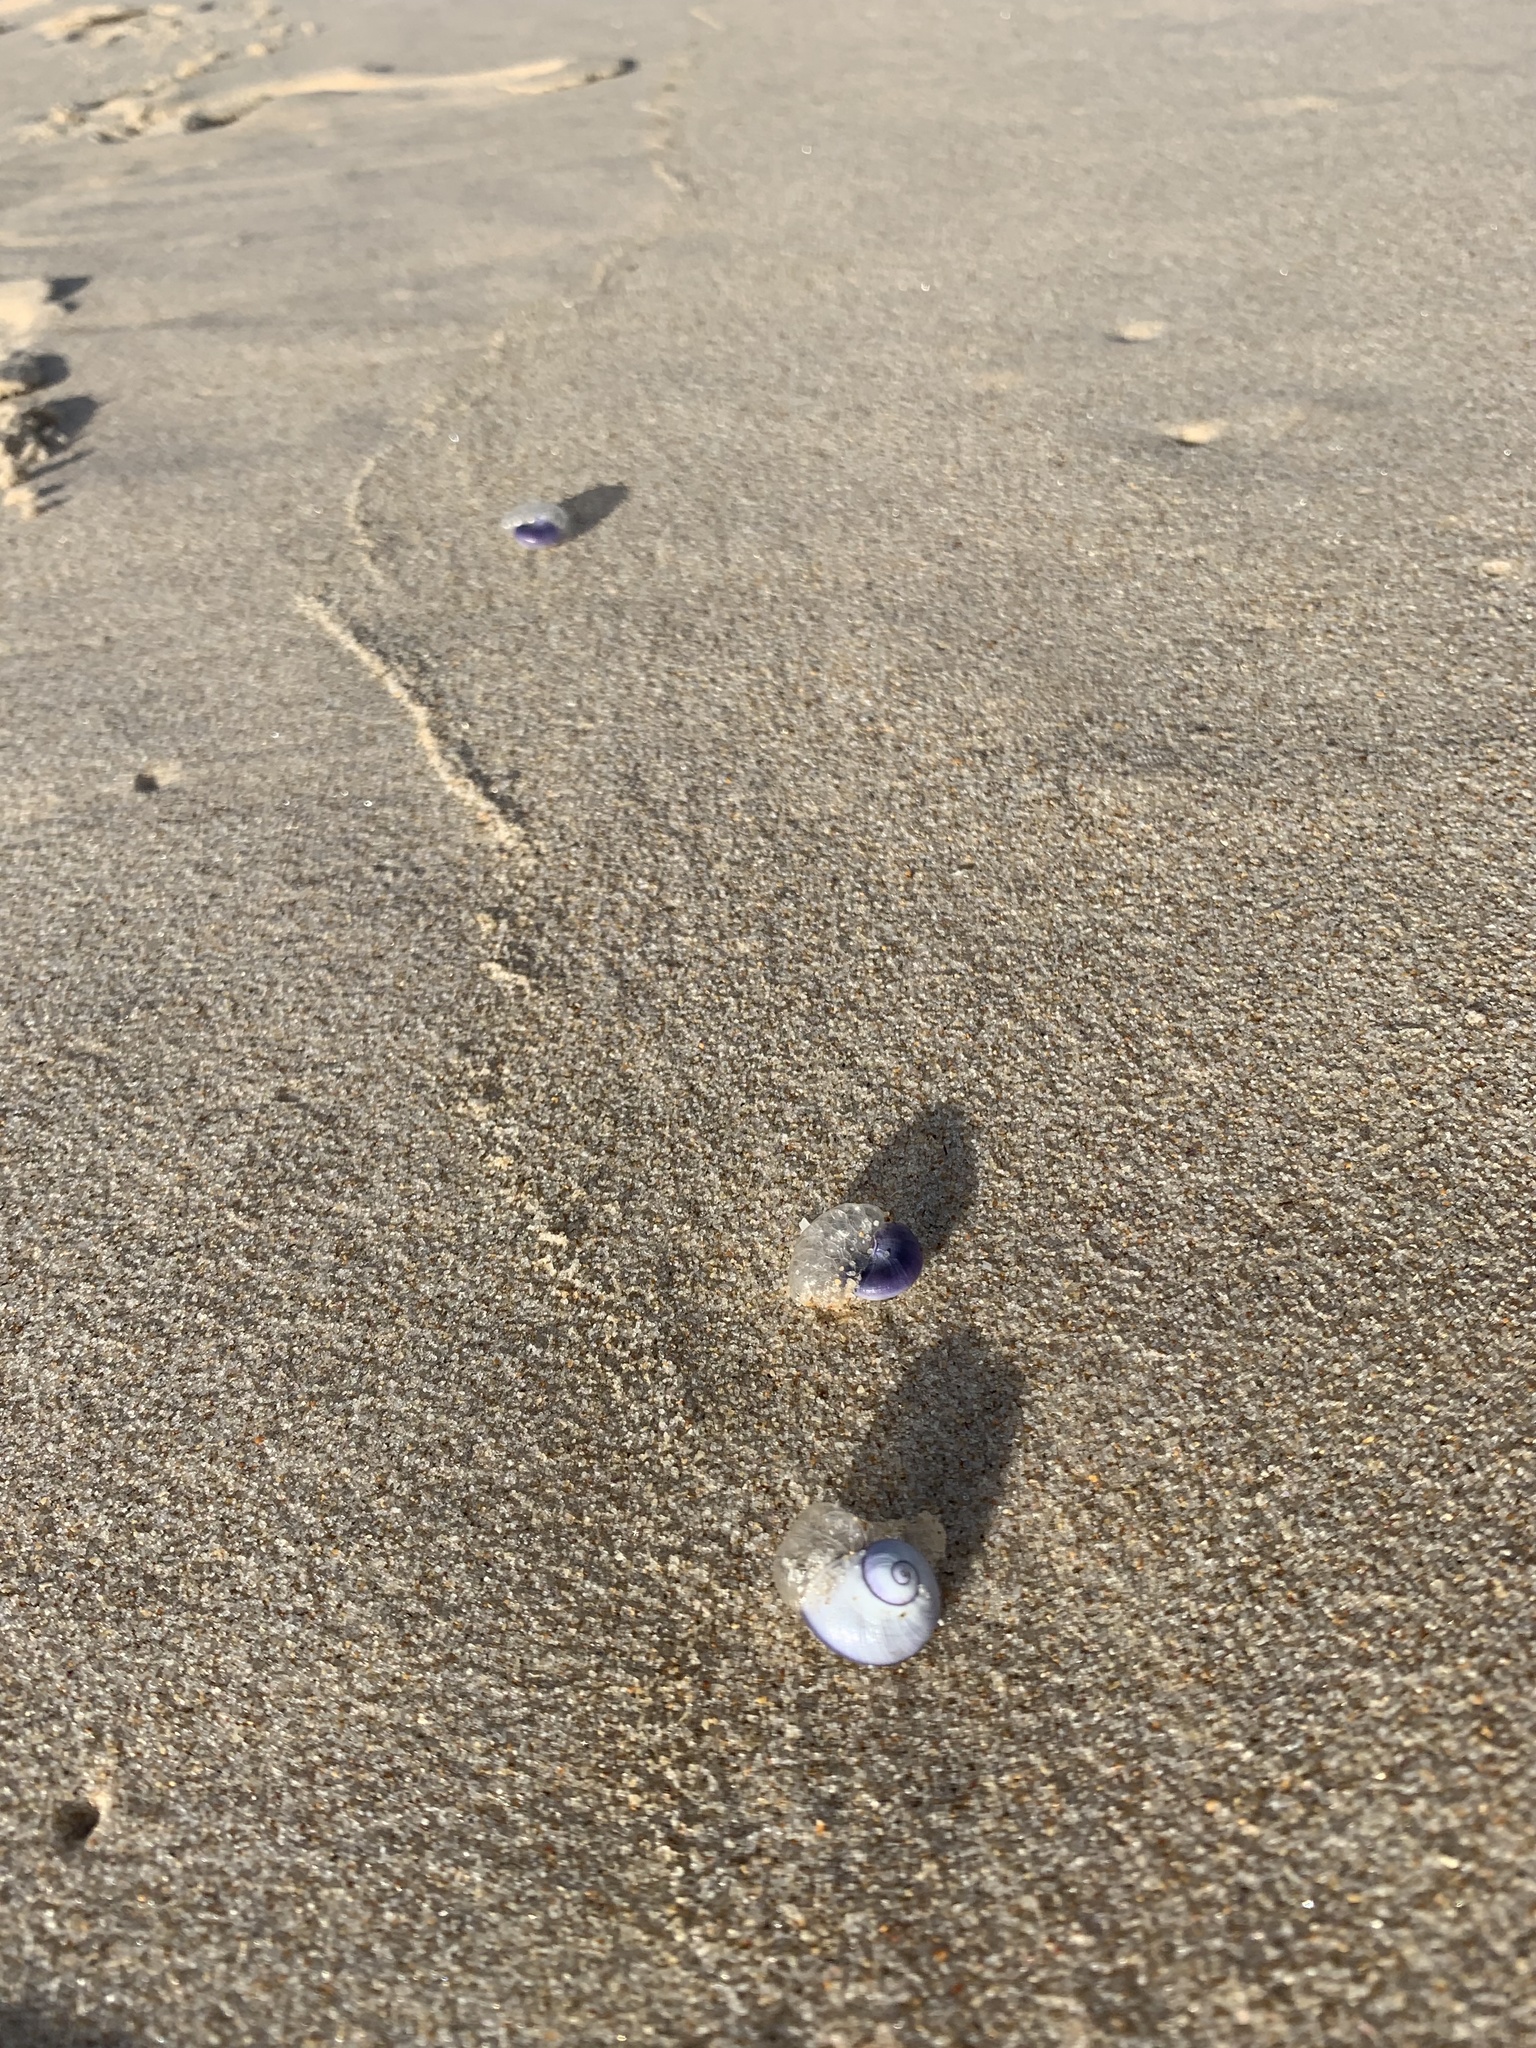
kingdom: Animalia
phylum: Mollusca
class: Gastropoda
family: Epitoniidae
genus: Janthina
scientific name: Janthina janthina
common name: Common janthina
